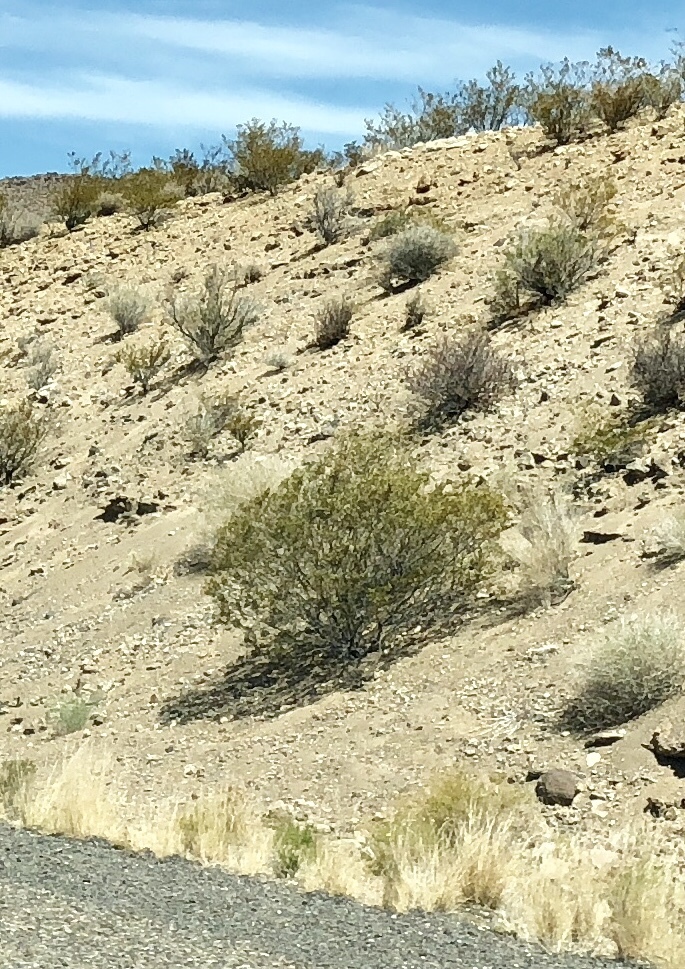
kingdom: Plantae
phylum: Tracheophyta
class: Magnoliopsida
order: Zygophyllales
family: Zygophyllaceae
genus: Larrea
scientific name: Larrea tridentata
